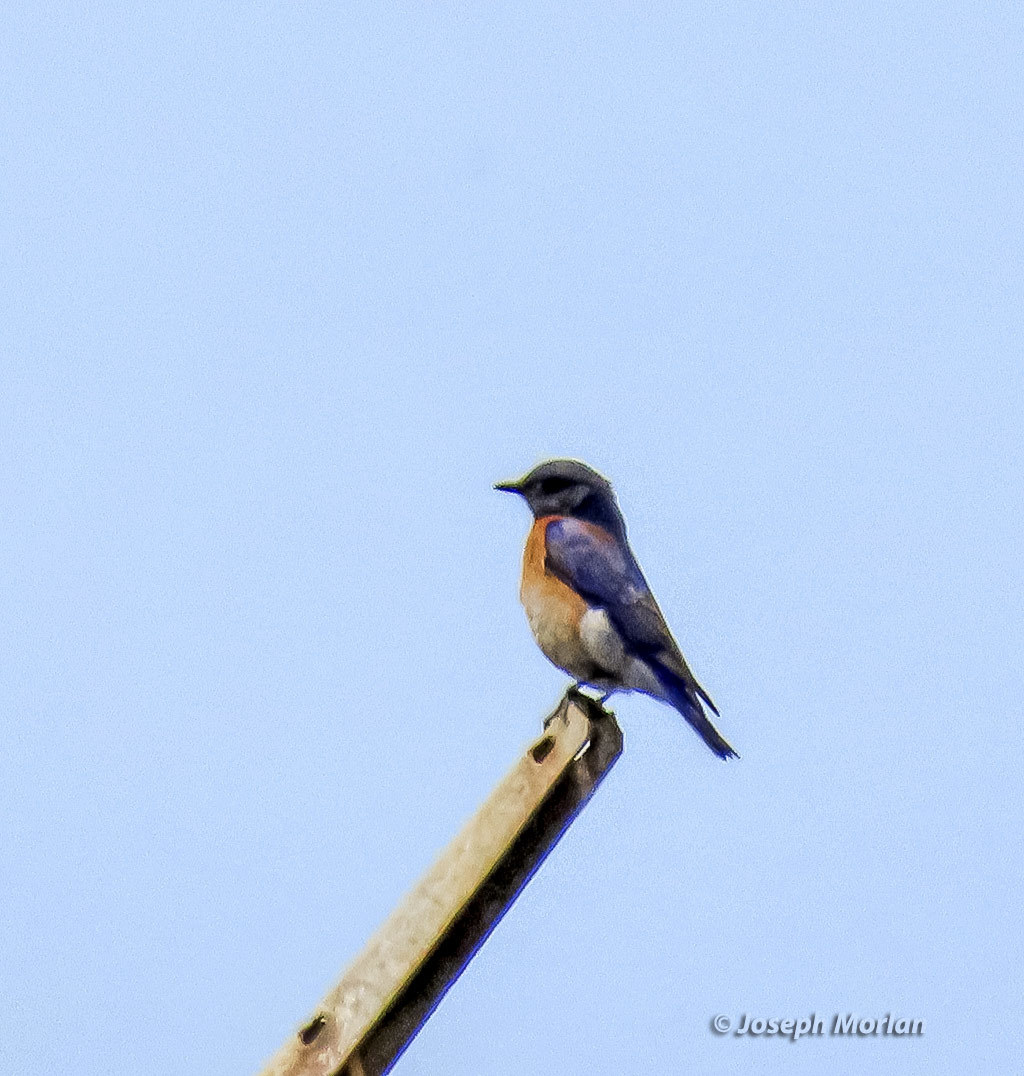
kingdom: Animalia
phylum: Chordata
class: Aves
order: Passeriformes
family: Turdidae
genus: Sialia
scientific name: Sialia mexicana
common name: Western bluebird
